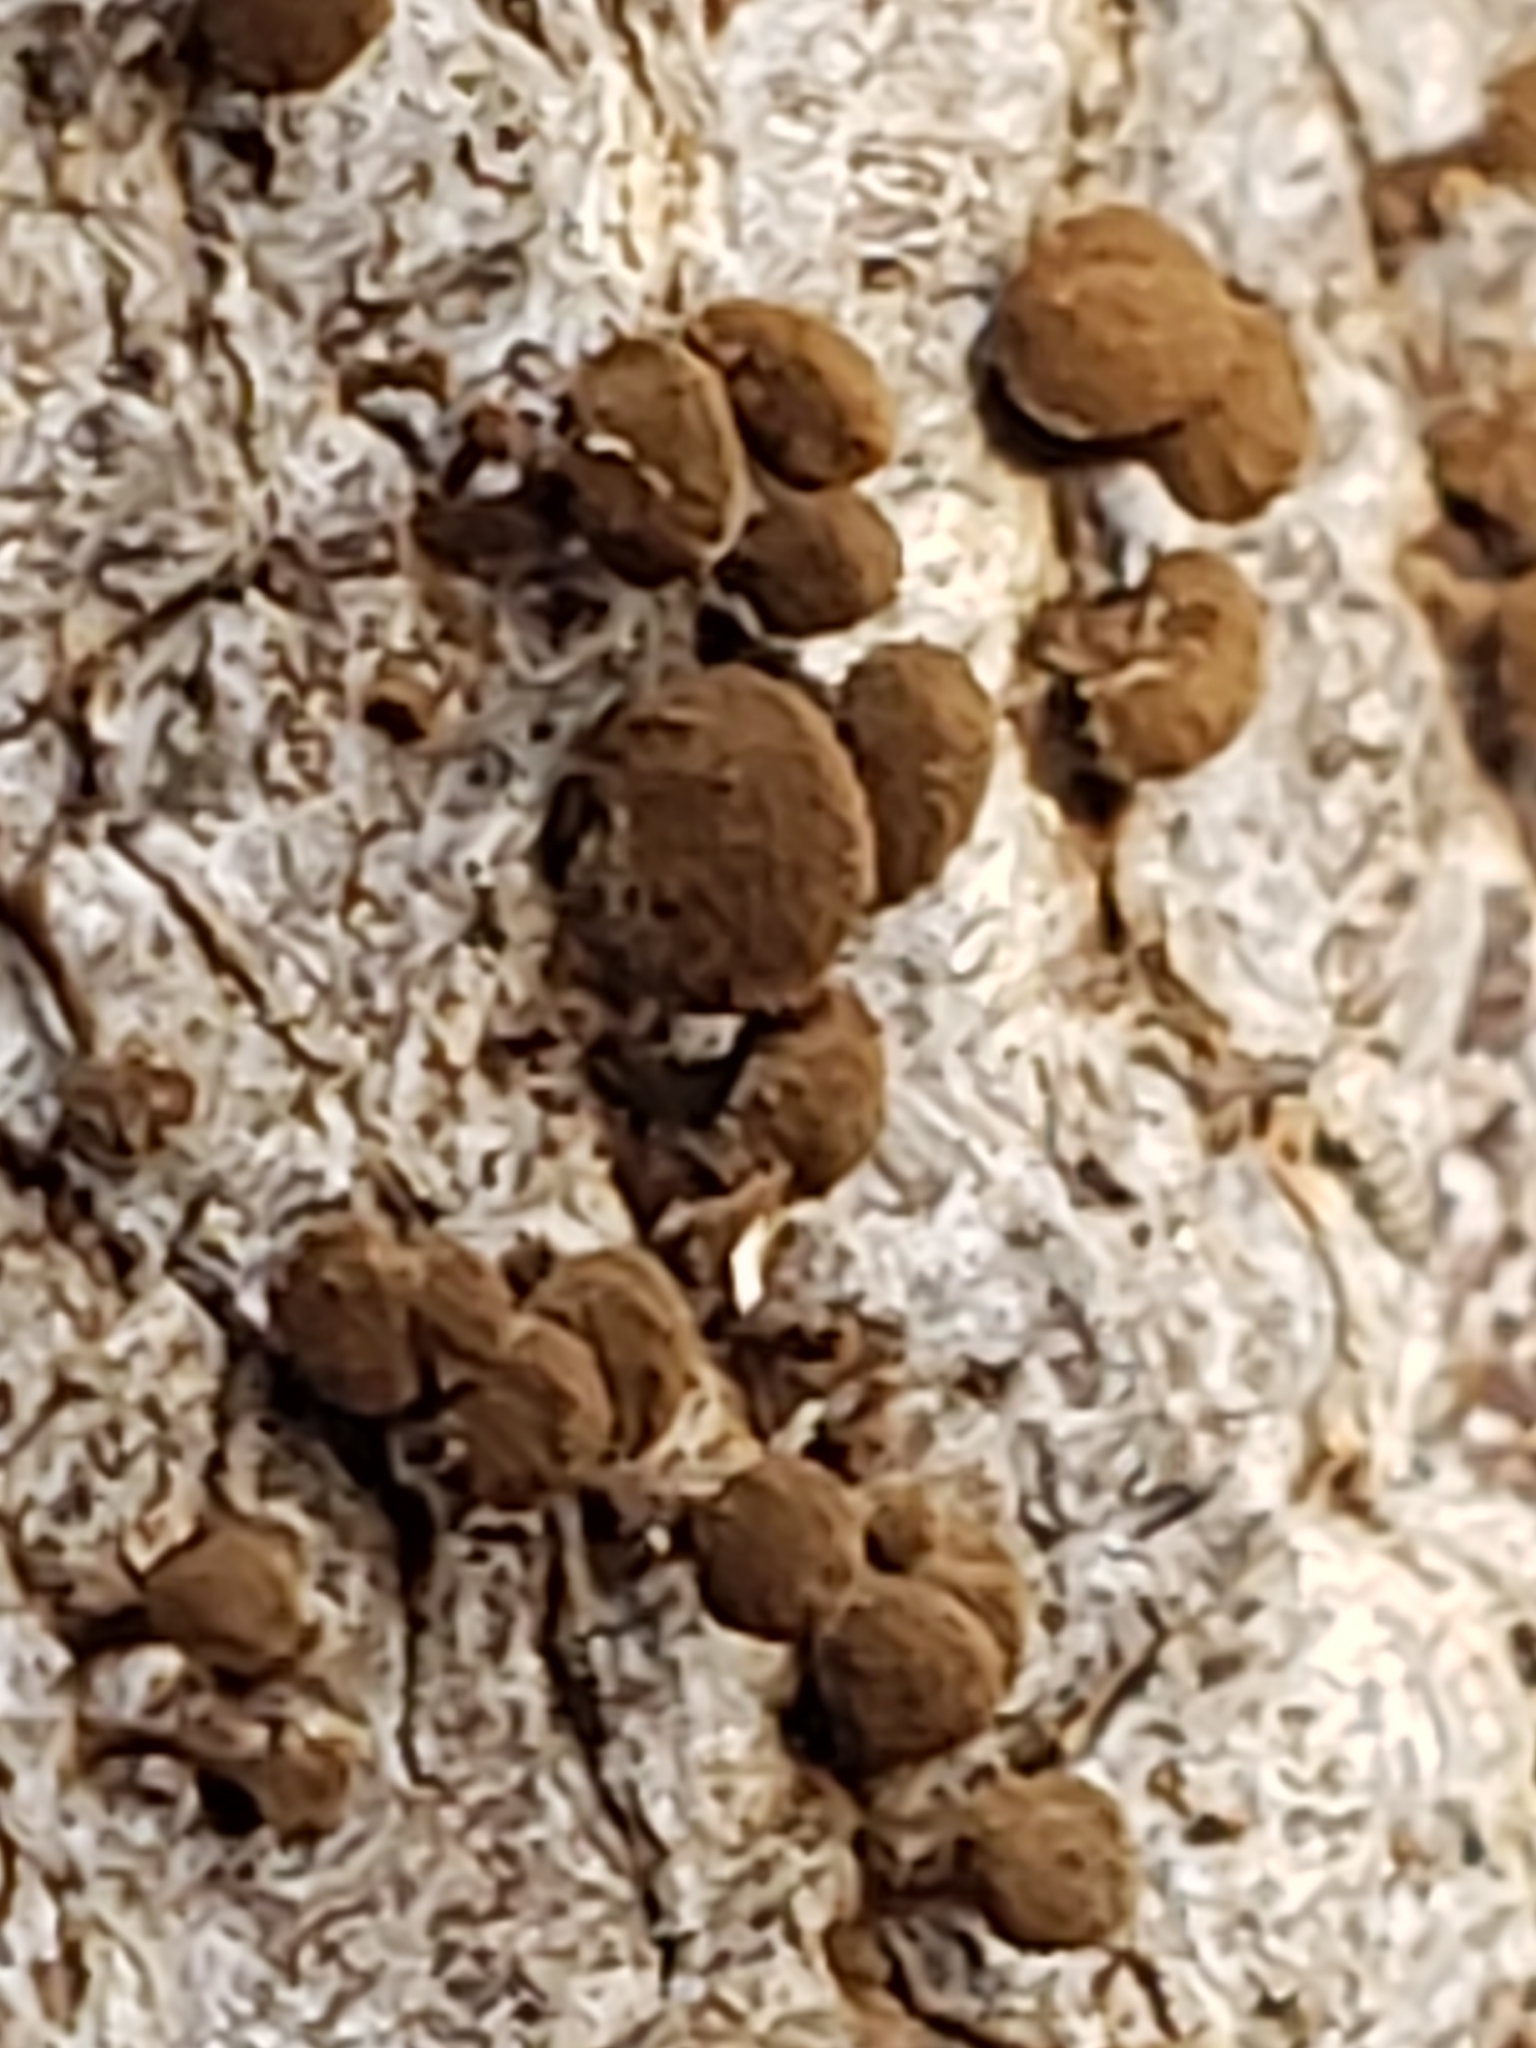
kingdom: Fungi
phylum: Basidiomycota
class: Atractiellomycetes
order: Atractiellales
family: Phleogenaceae
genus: Phleogena
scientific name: Phleogena faginea
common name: Fenugreek stalkball
